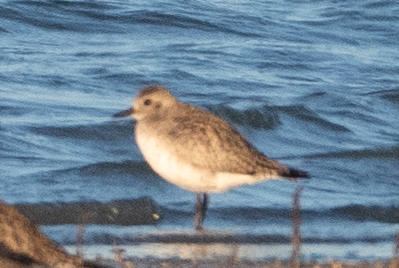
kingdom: Animalia
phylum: Chordata
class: Aves
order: Charadriiformes
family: Charadriidae
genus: Pluvialis
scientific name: Pluvialis squatarola
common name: Grey plover
